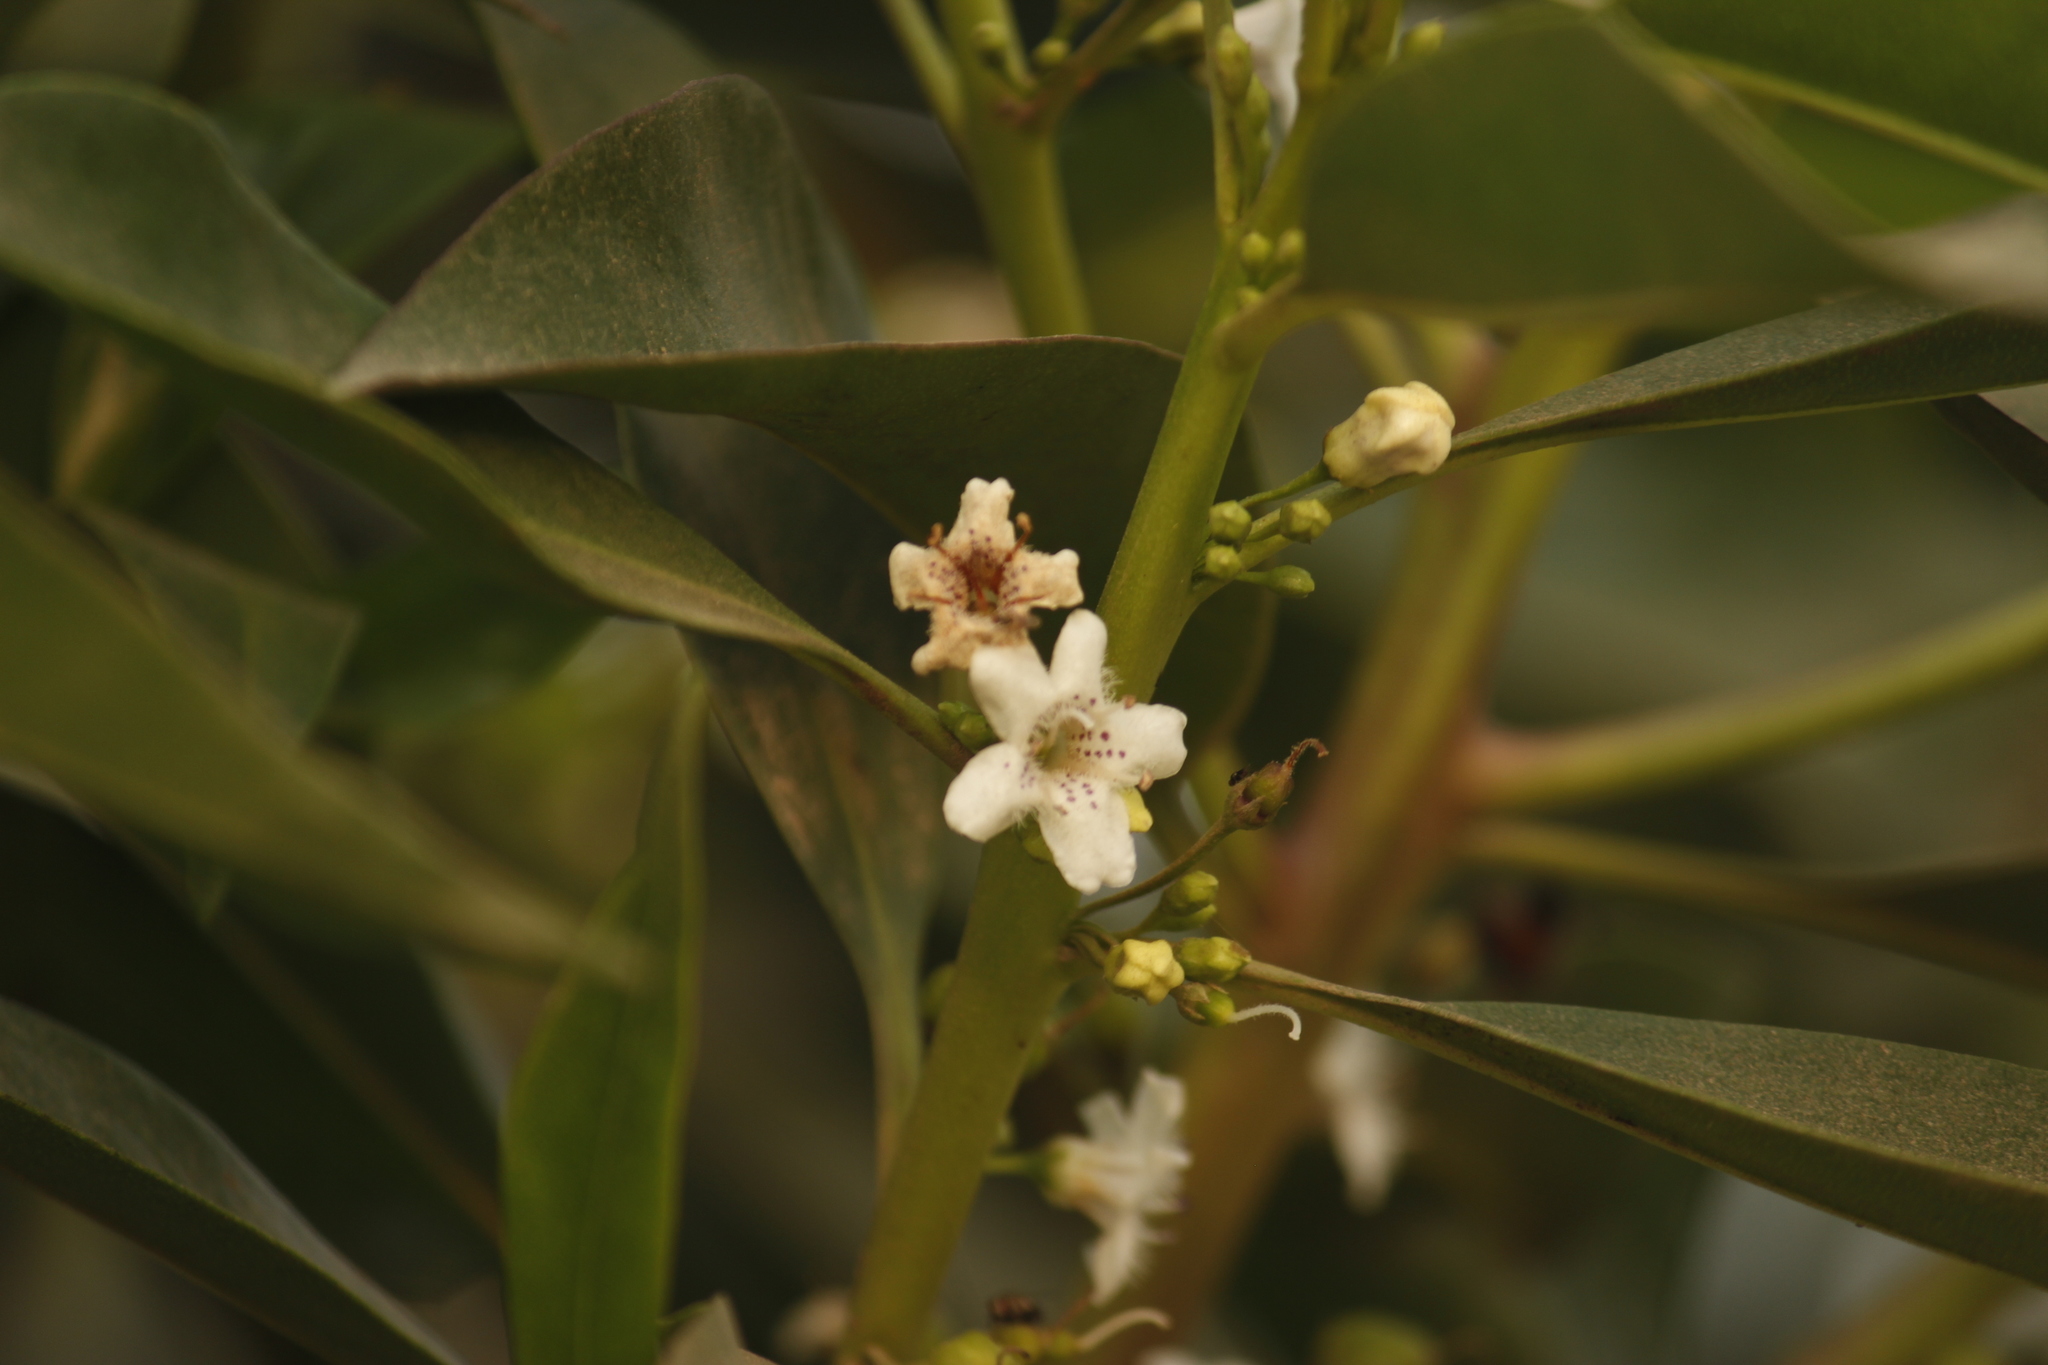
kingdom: Plantae
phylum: Tracheophyta
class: Magnoliopsida
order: Lamiales
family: Scrophulariaceae
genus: Myoporum
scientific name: Myoporum laetum
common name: Ngaio tree
